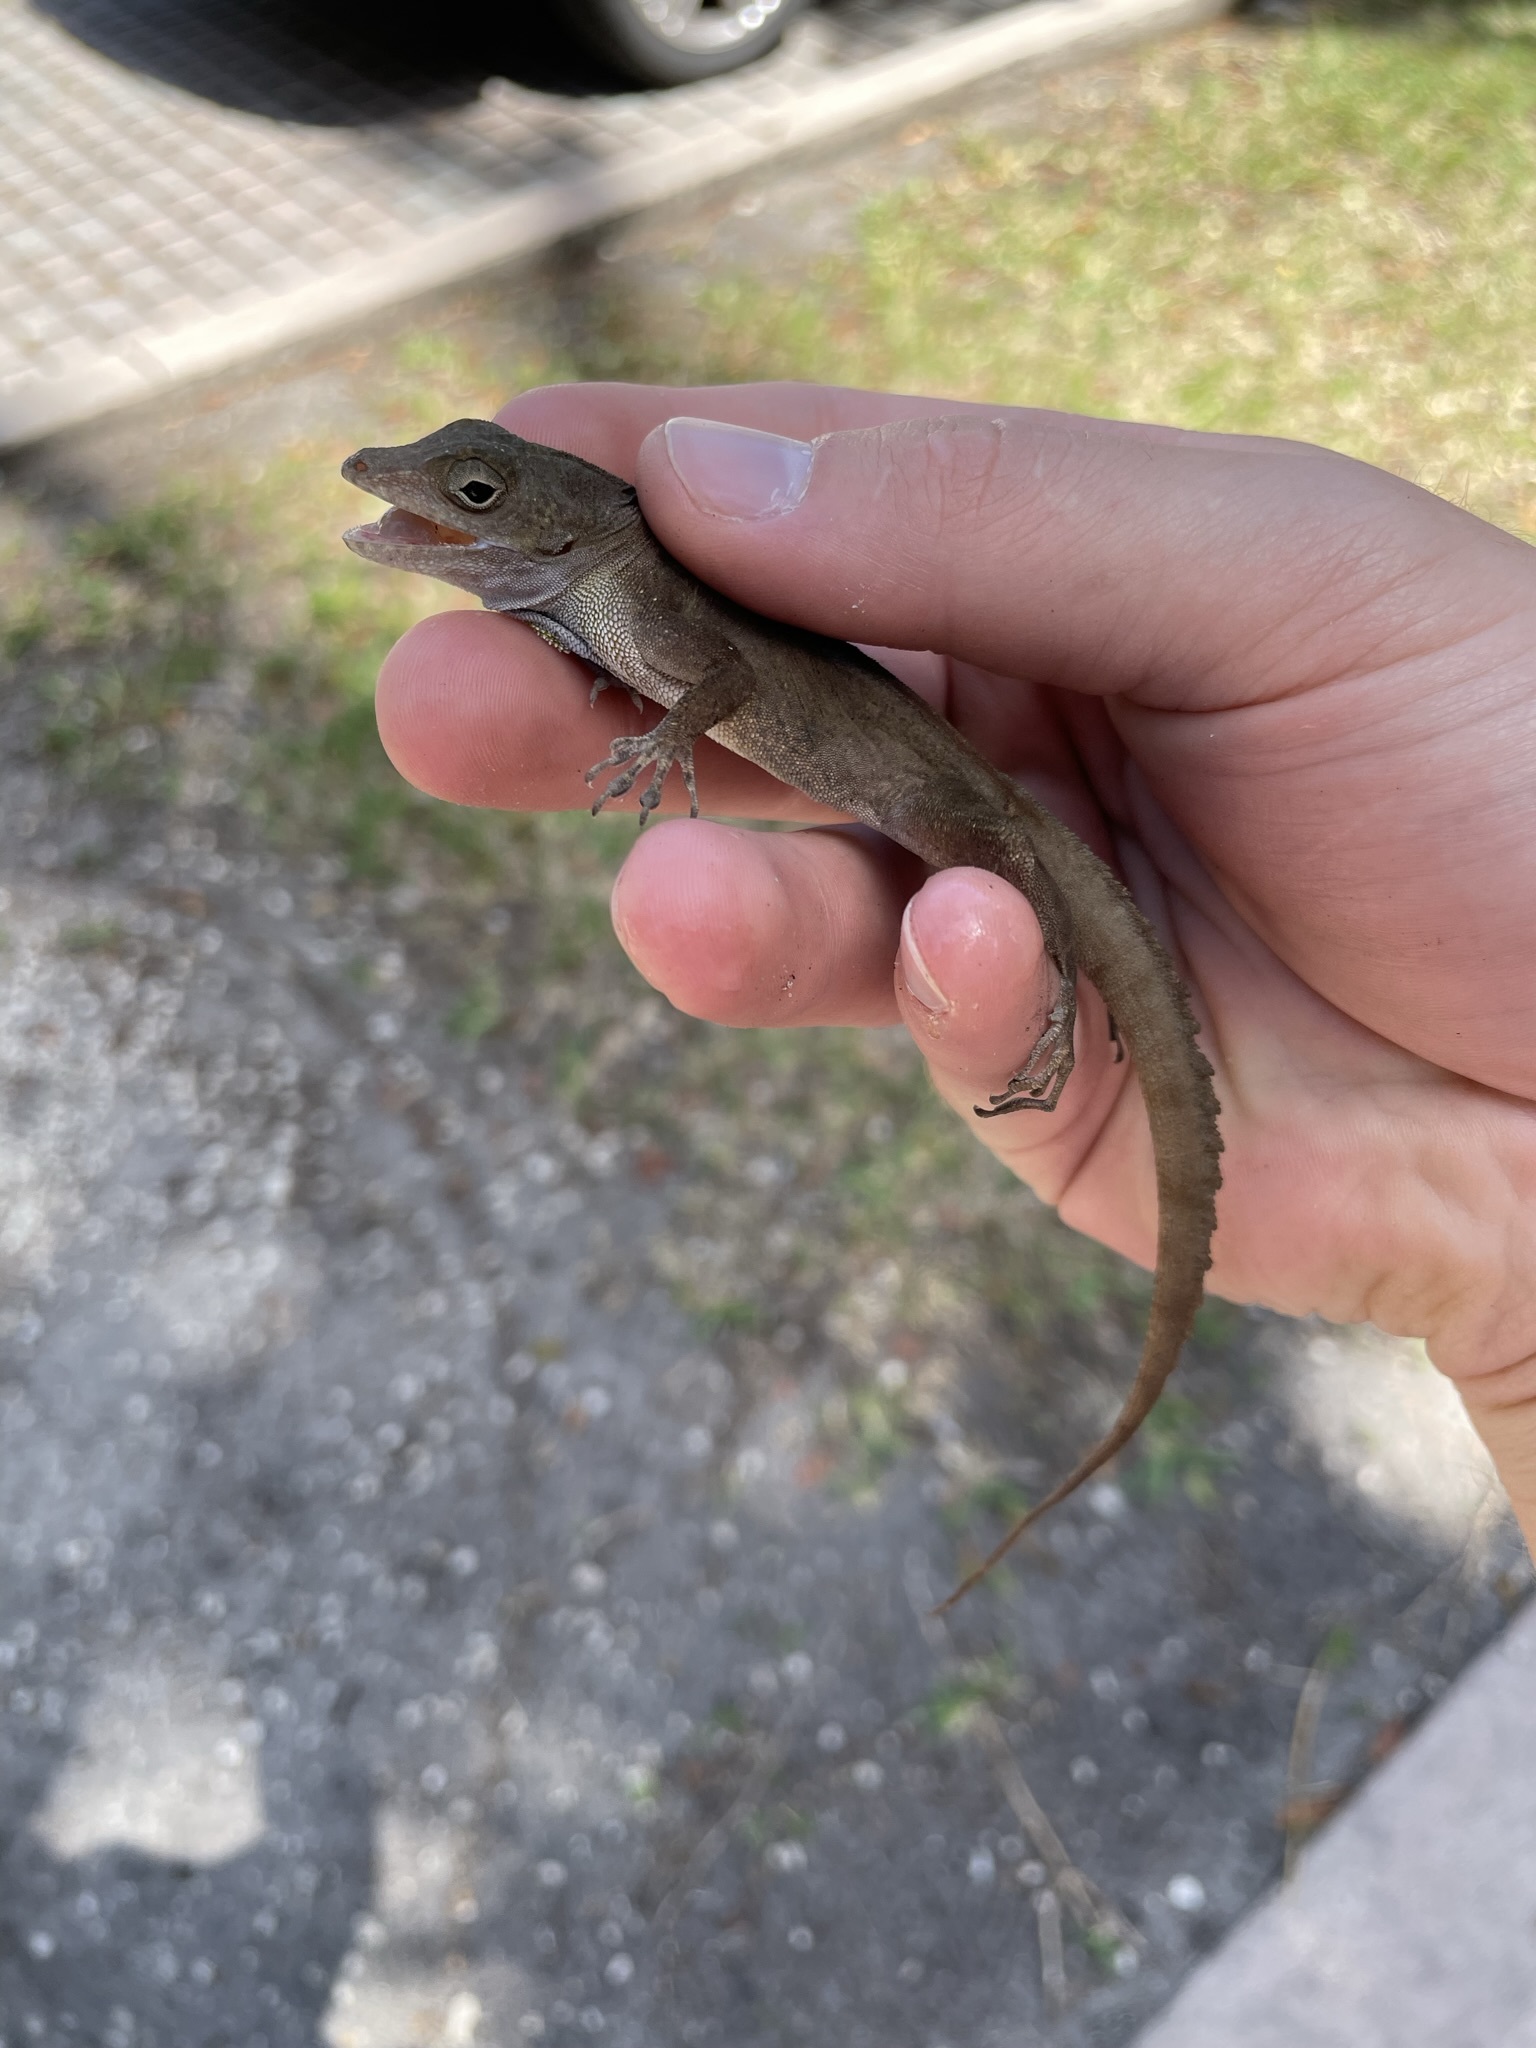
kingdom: Animalia
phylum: Chordata
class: Squamata
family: Dactyloidae
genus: Anolis
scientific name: Anolis cristatellus
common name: Crested anole
